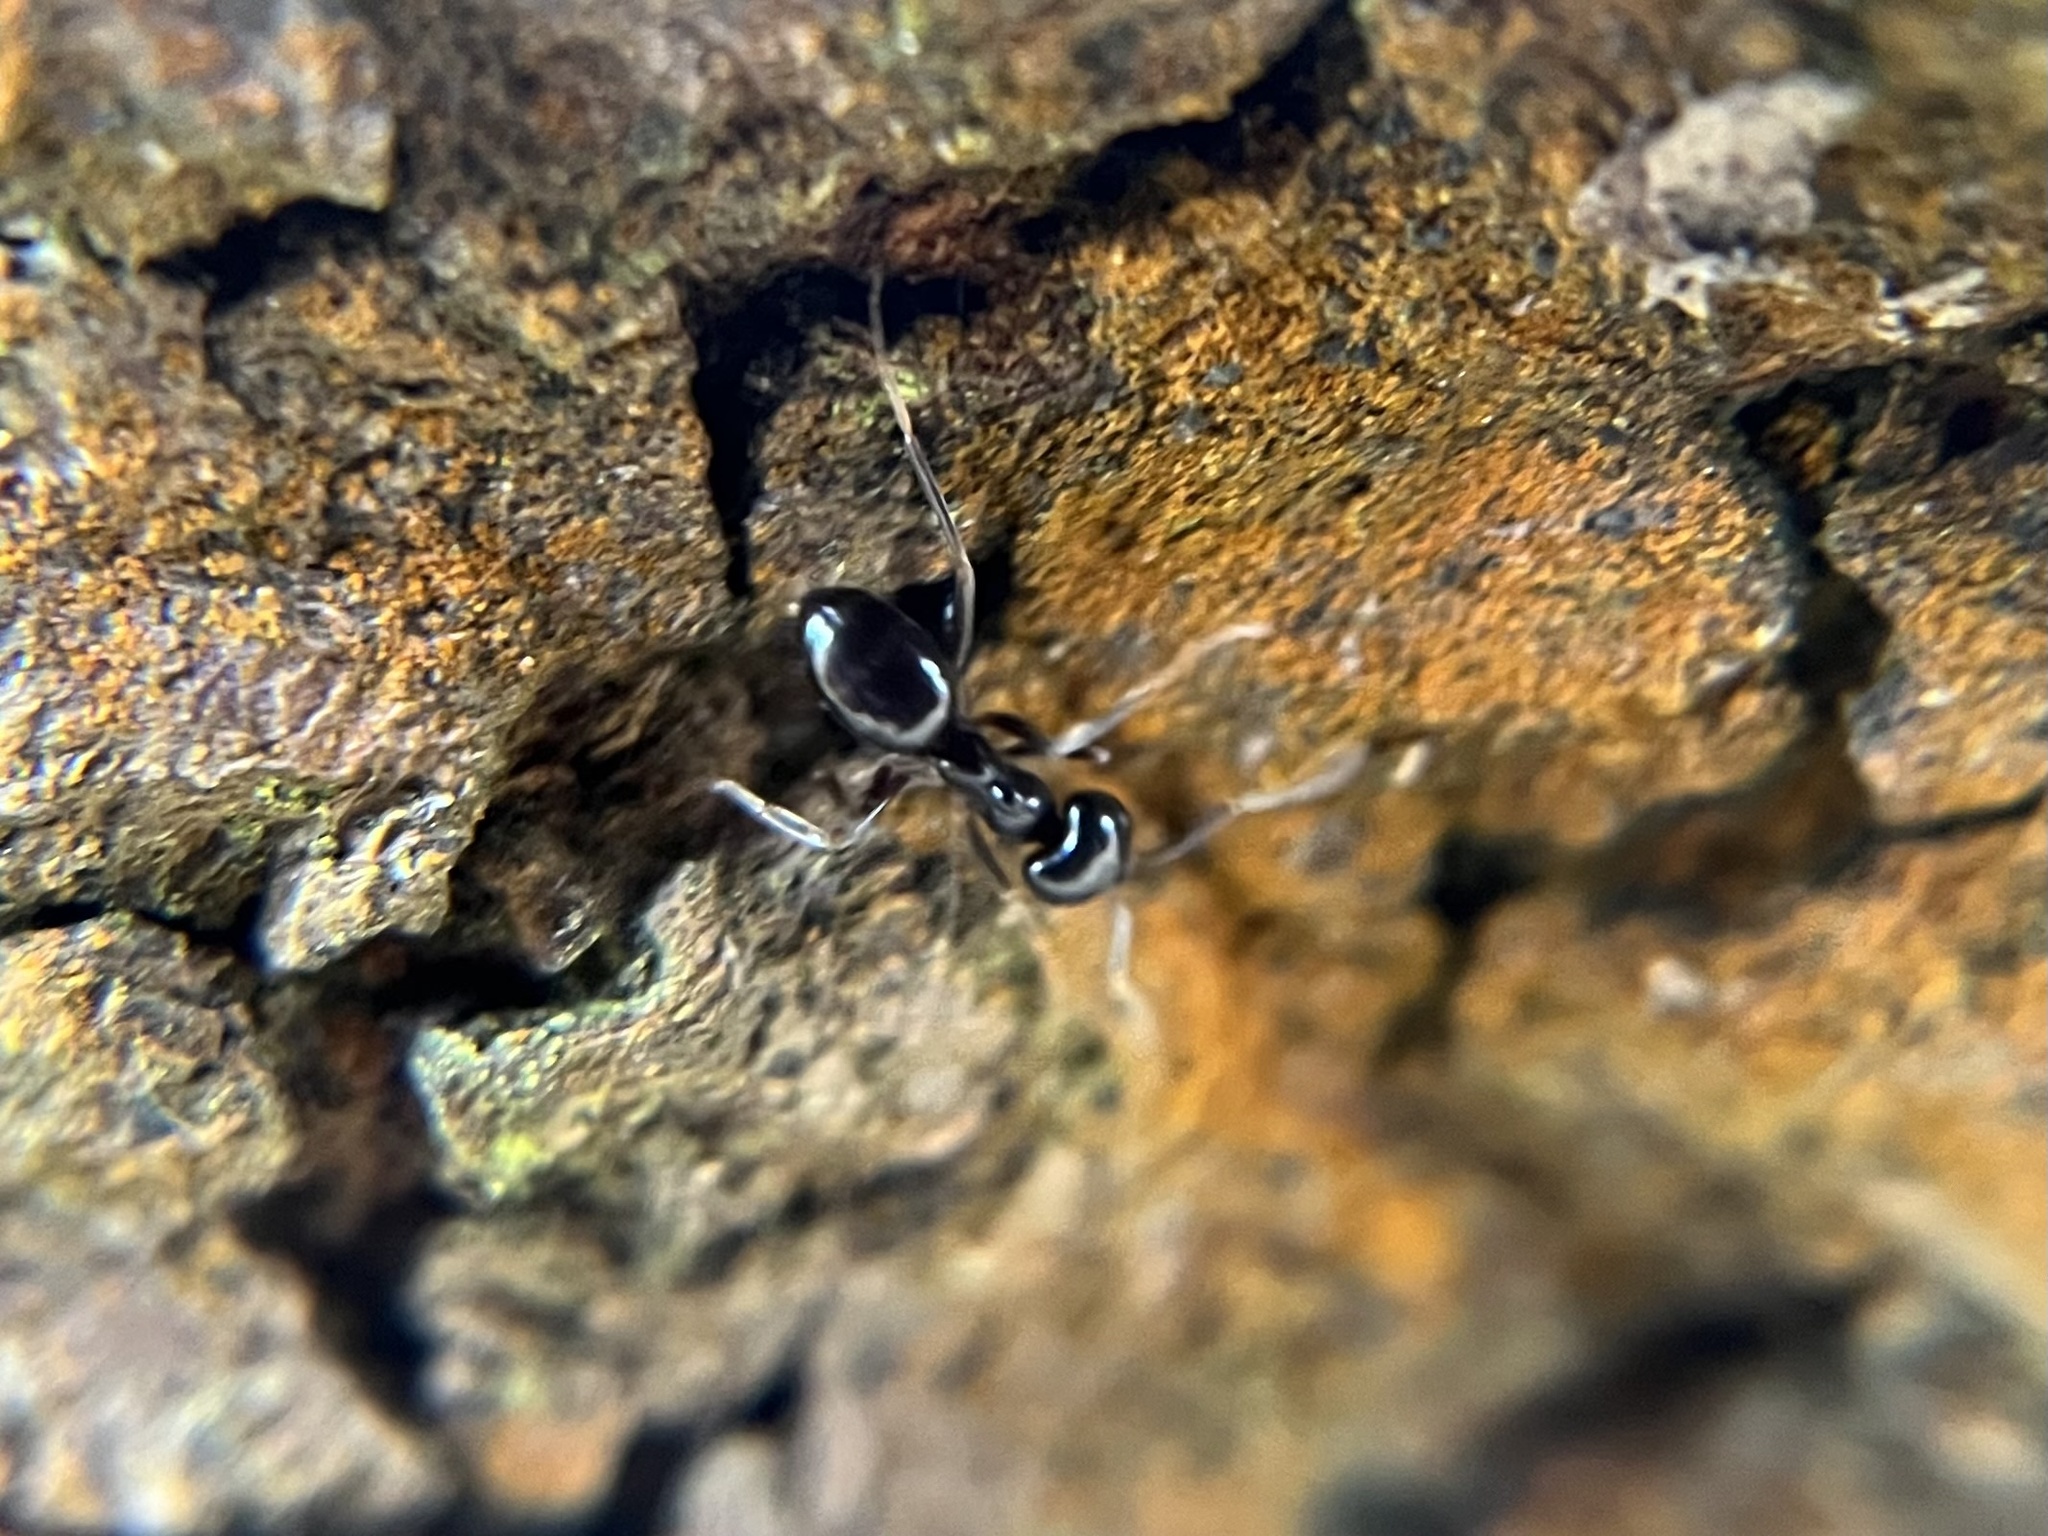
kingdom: Animalia
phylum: Arthropoda
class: Insecta
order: Hymenoptera
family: Formicidae
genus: Lasius
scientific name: Lasius fuliginosus
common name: Jet ant
